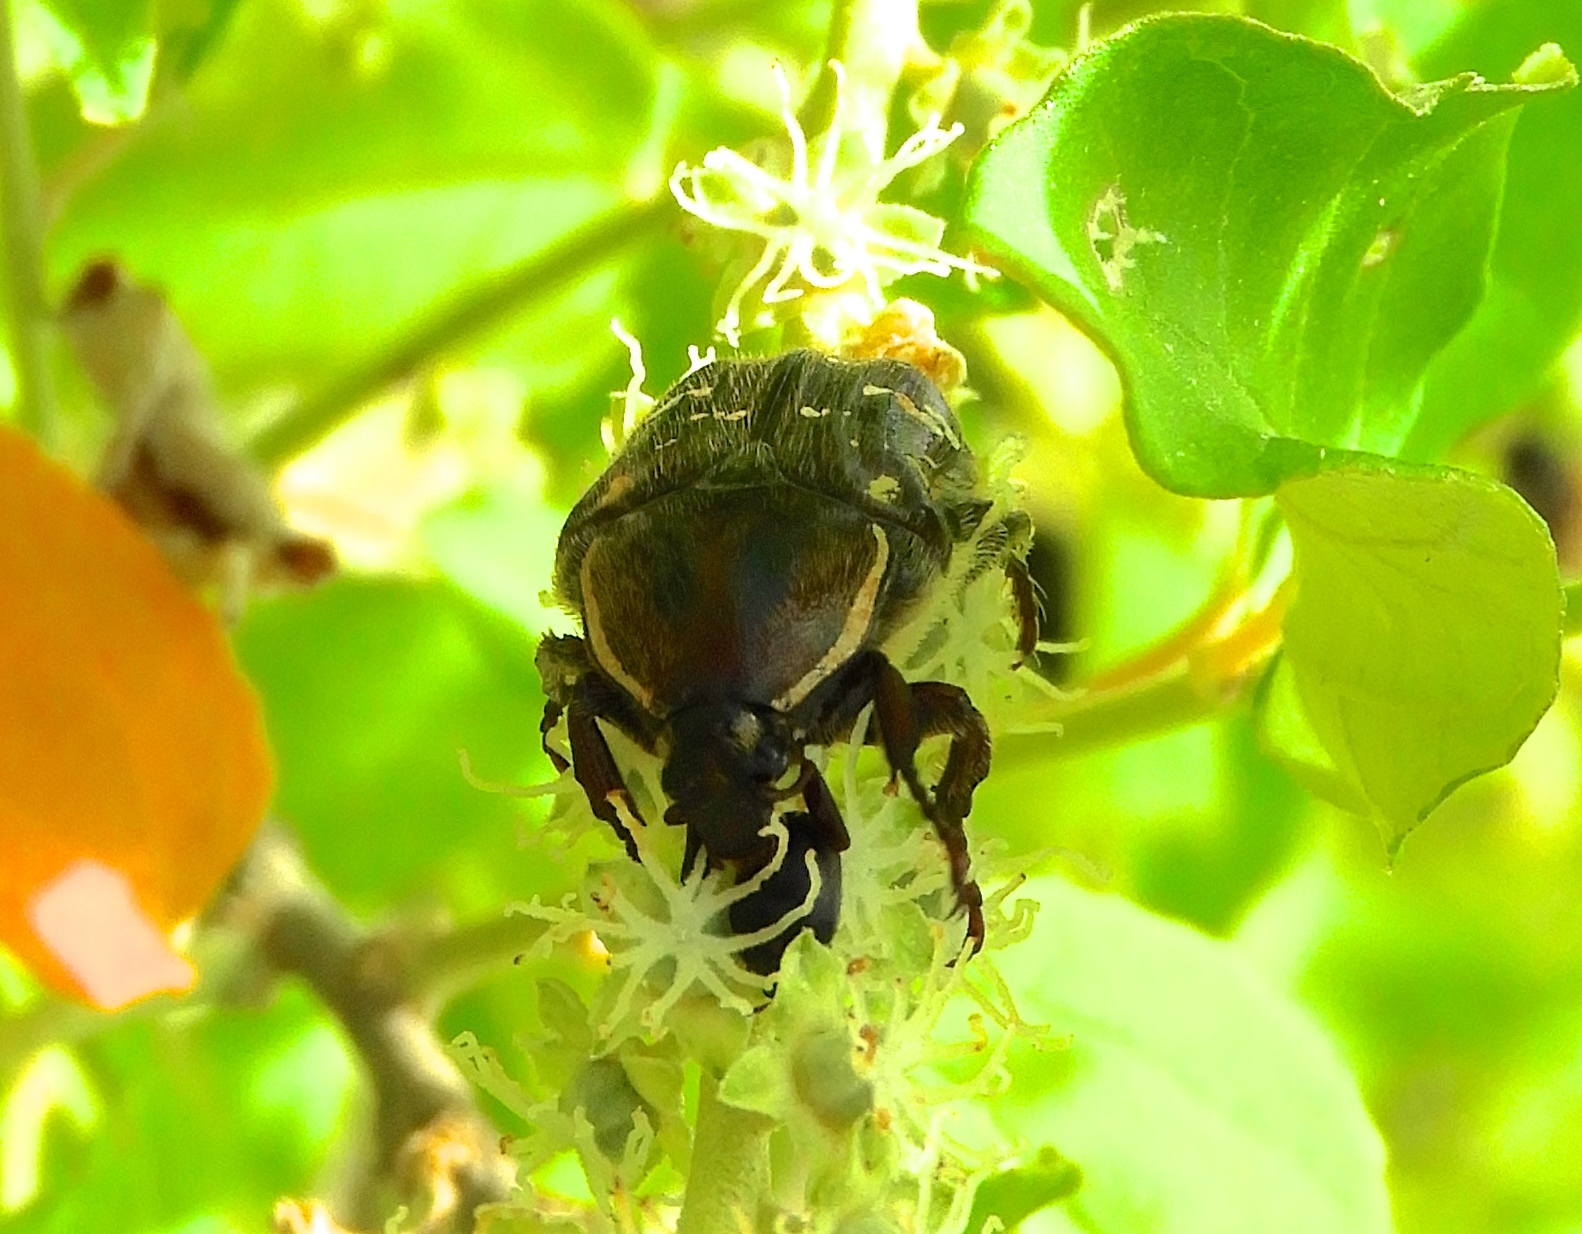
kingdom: Animalia
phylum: Arthropoda
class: Insecta
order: Coleoptera
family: Scarabaeidae
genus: Euphoria
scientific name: Euphoria
